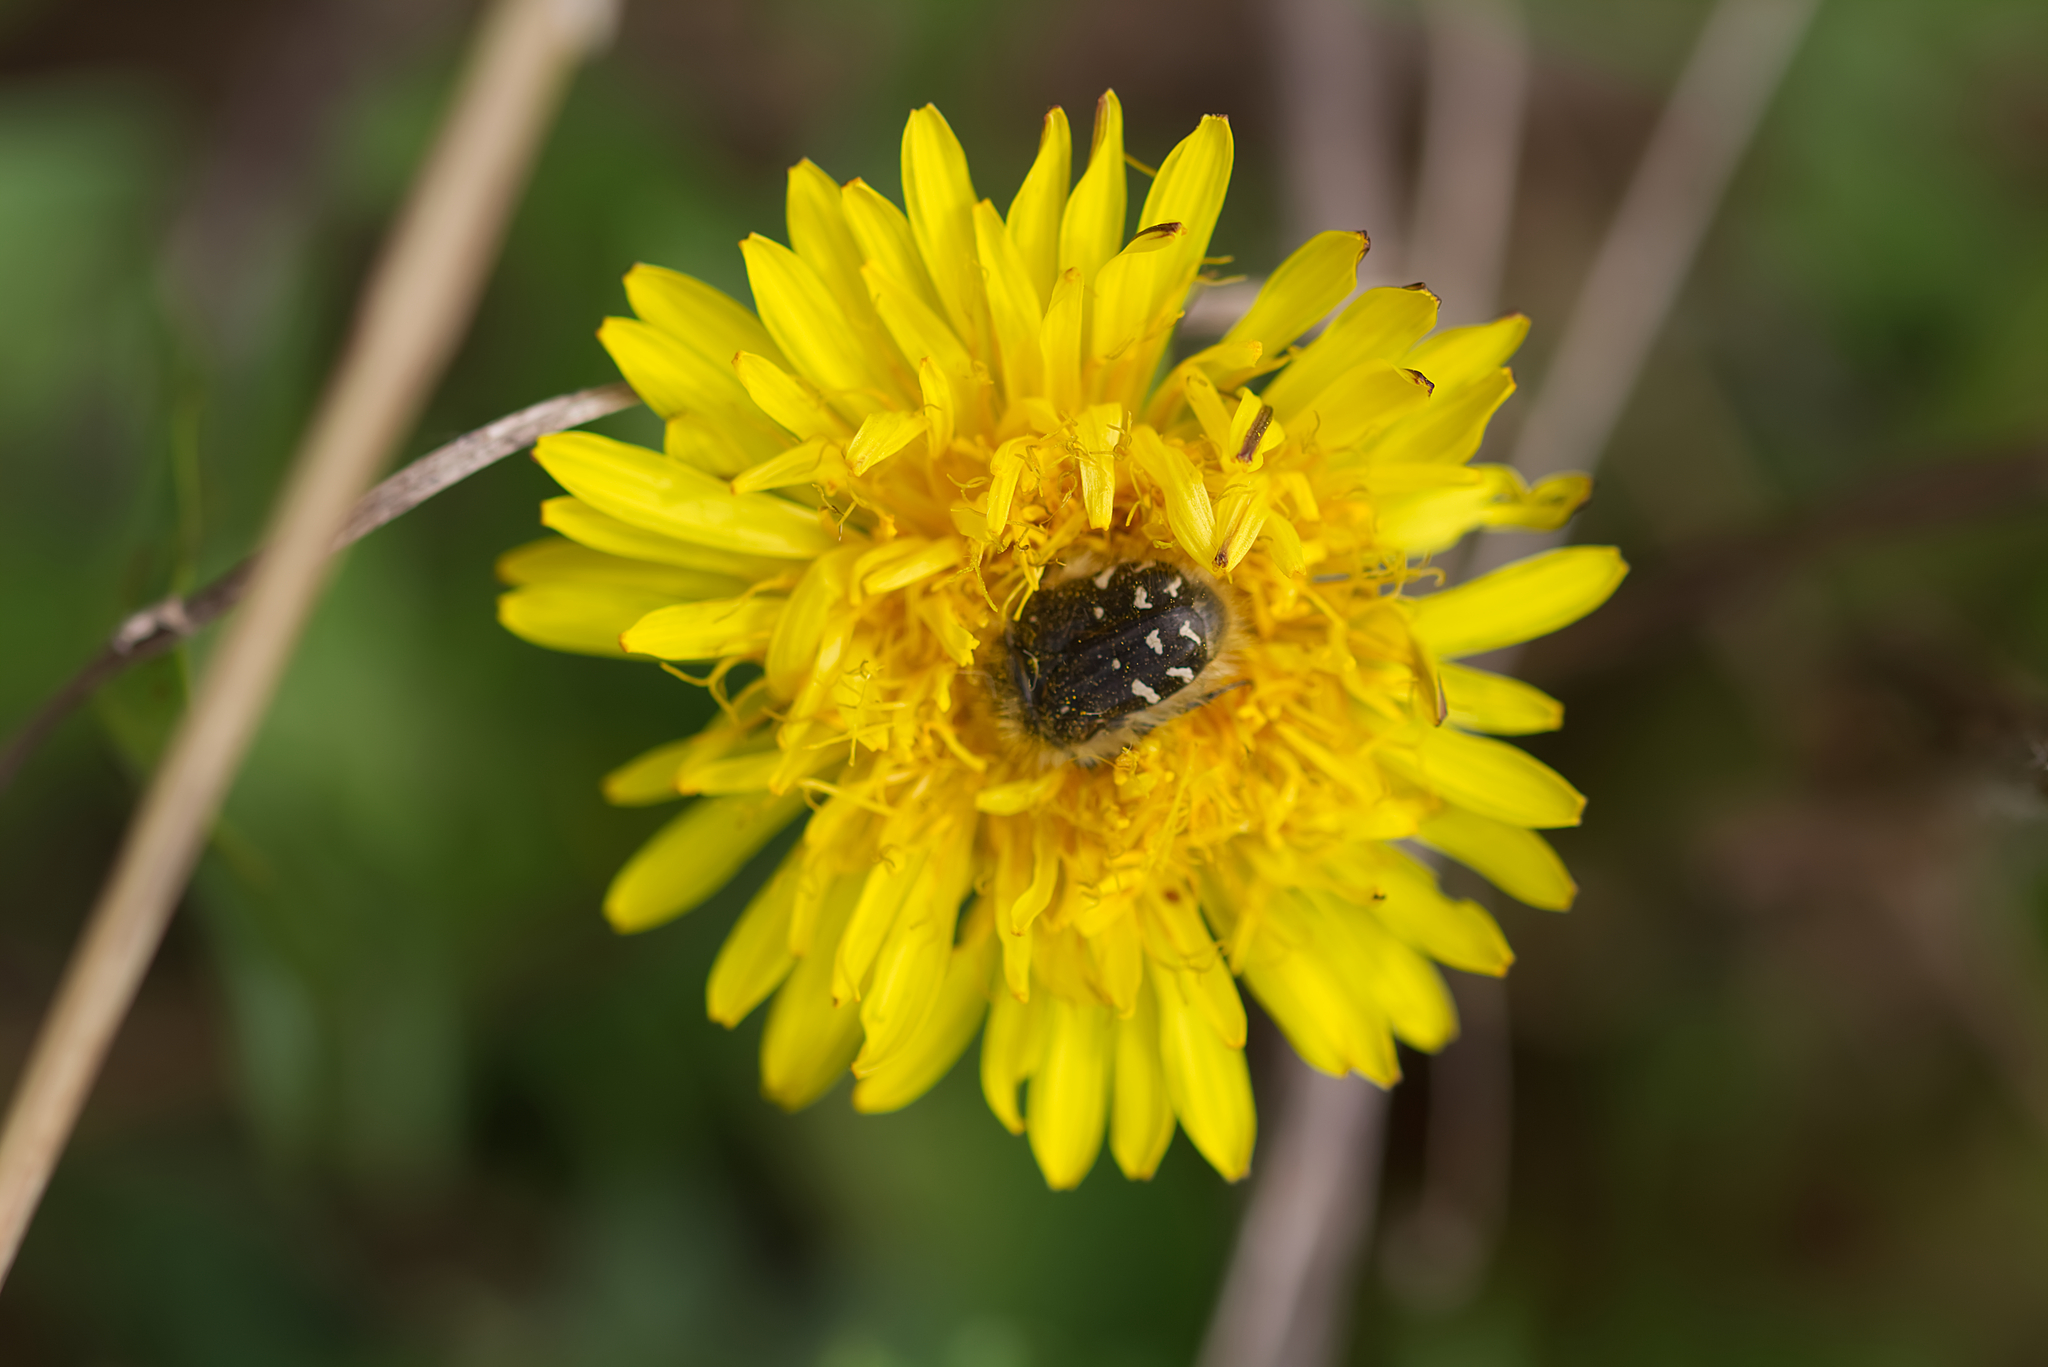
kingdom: Animalia
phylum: Arthropoda
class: Insecta
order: Coleoptera
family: Scarabaeidae
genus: Tropinota
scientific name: Tropinota hirta
